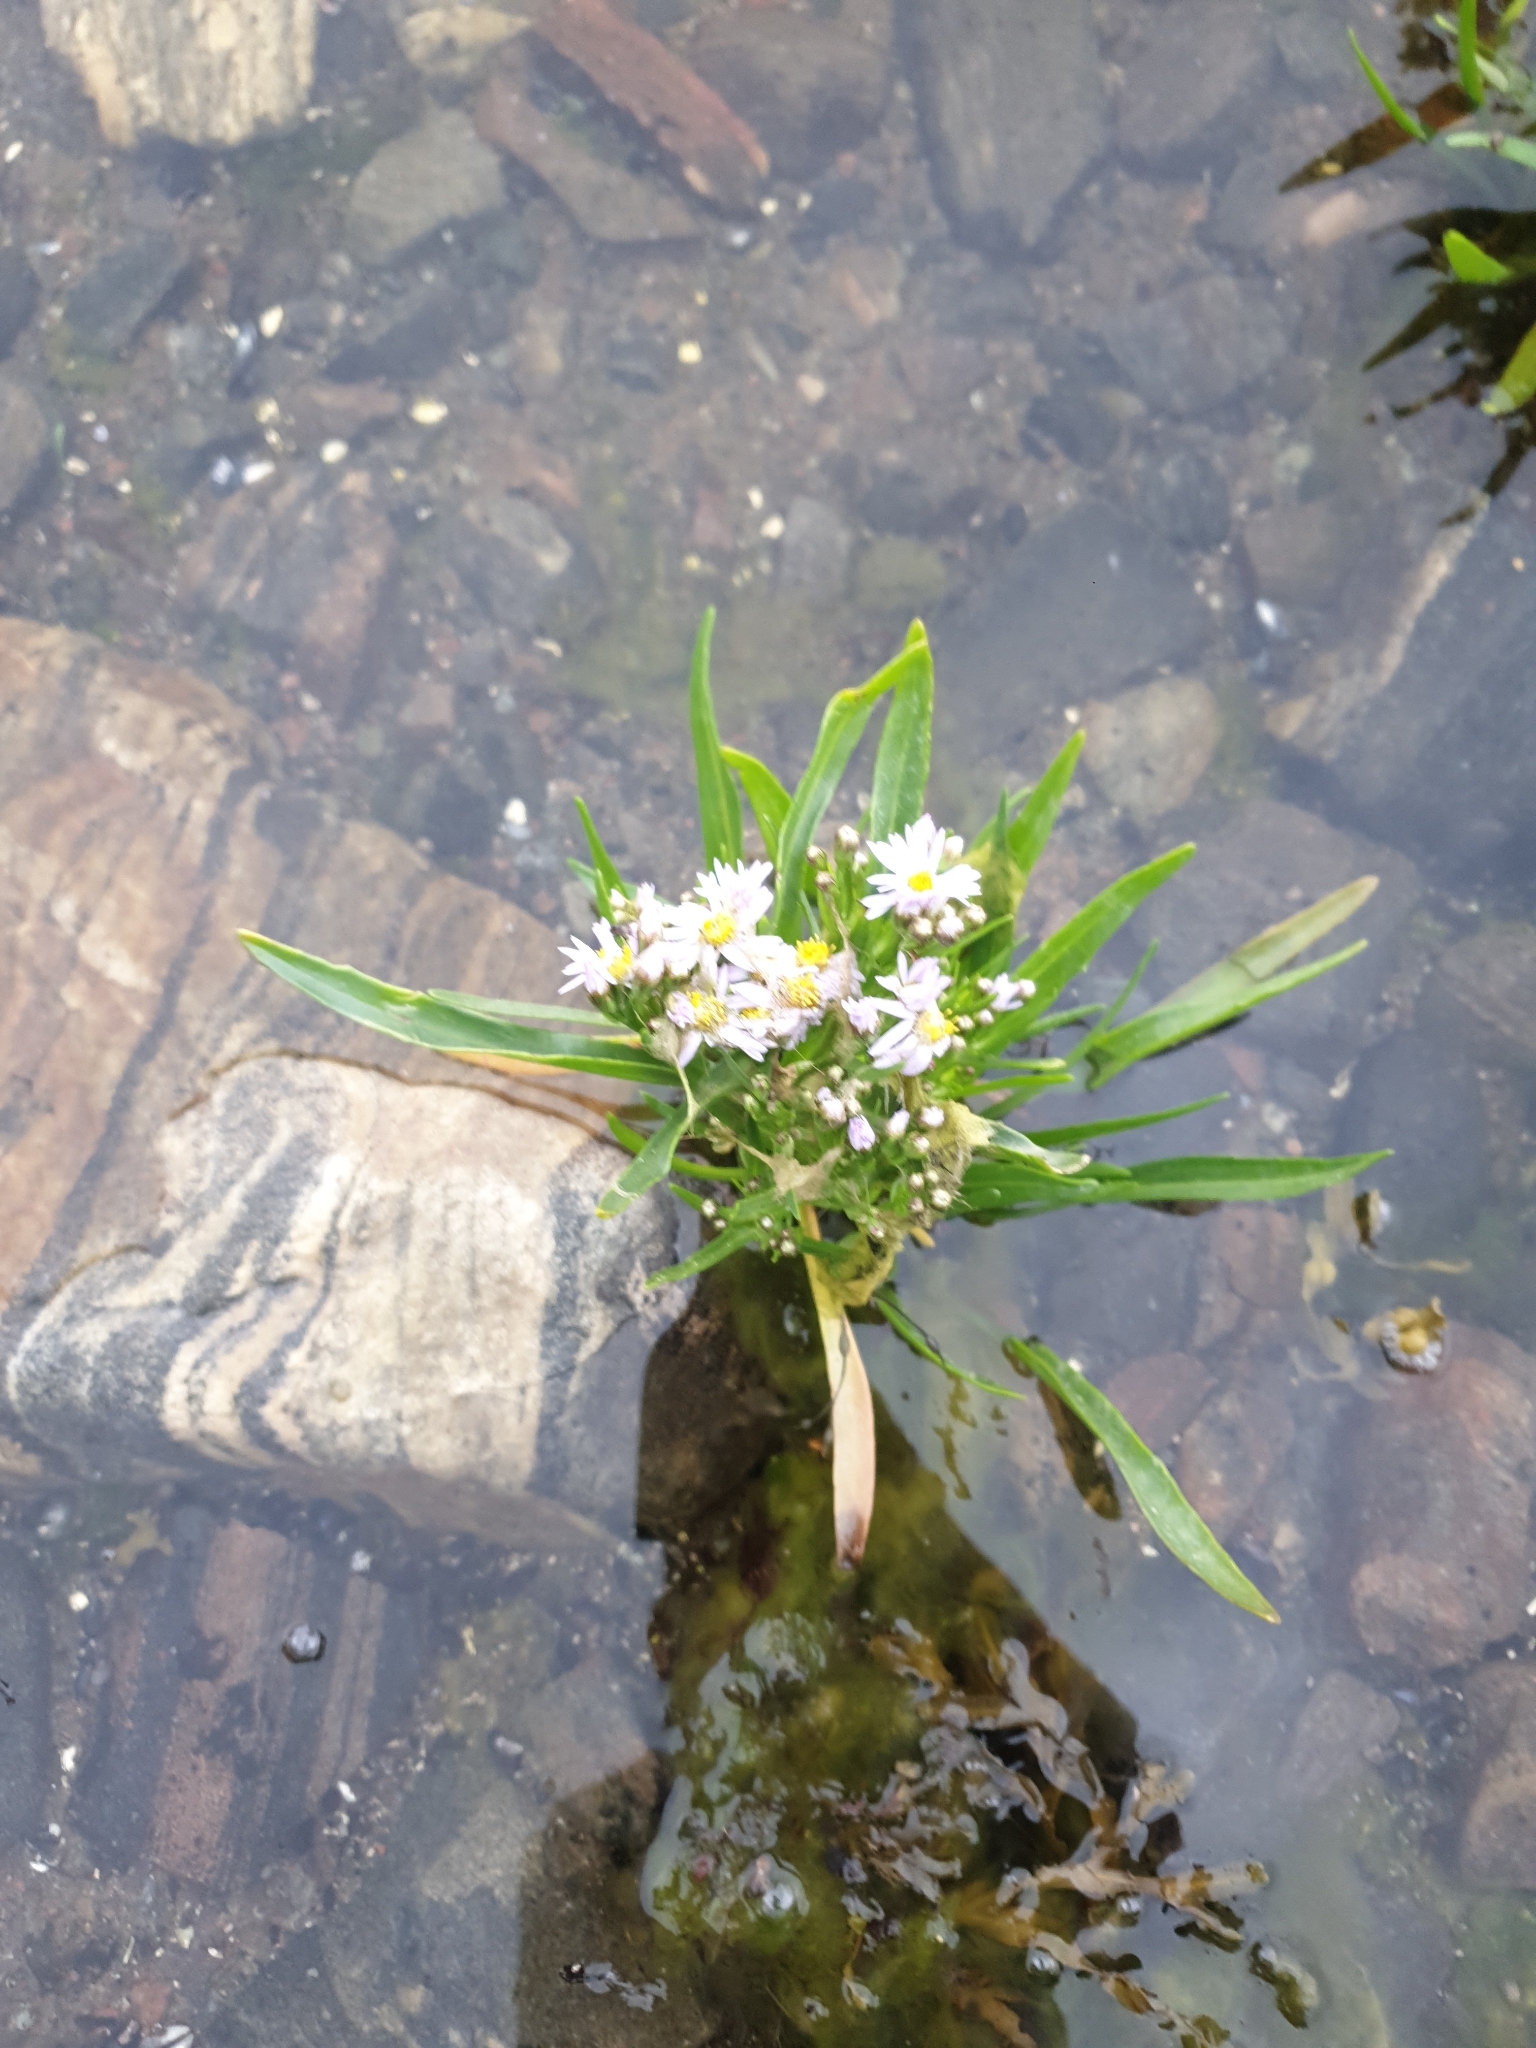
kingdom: Plantae
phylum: Tracheophyta
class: Magnoliopsida
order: Asterales
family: Asteraceae
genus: Tripolium
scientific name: Tripolium pannonicum
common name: Sea aster
